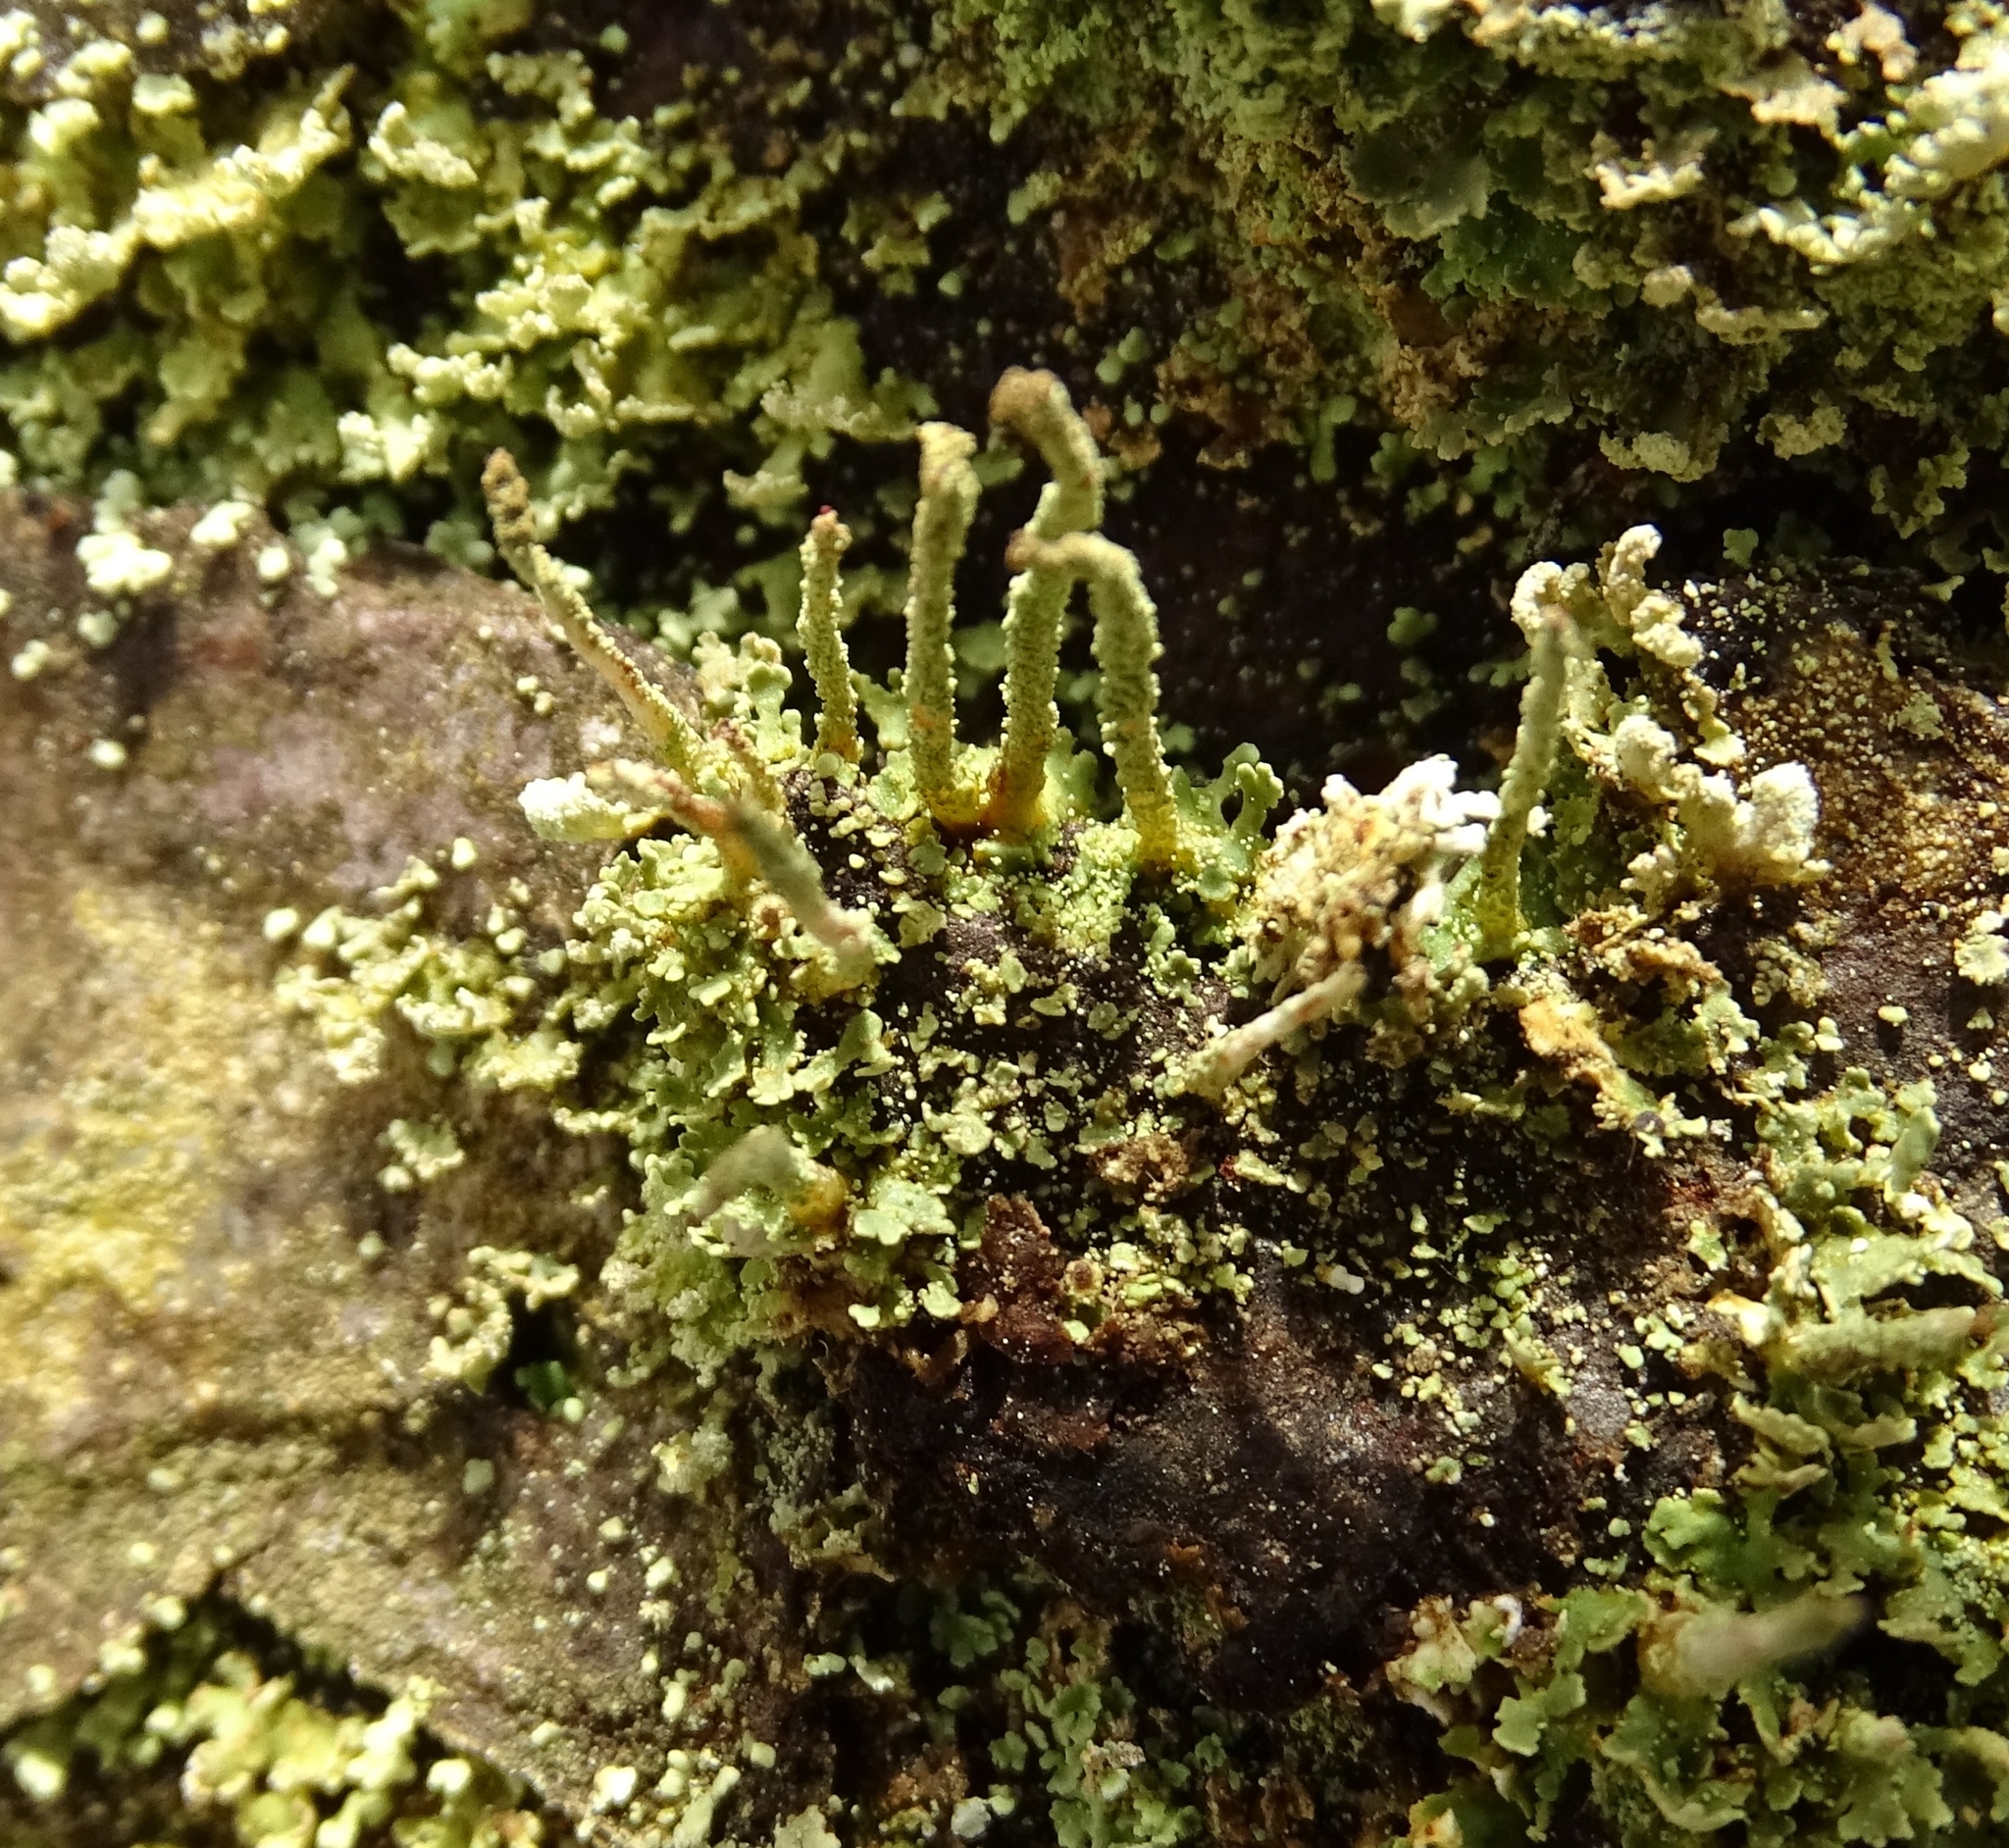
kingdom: Fungi
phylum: Ascomycota
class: Lecanoromycetes
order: Lecanorales
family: Cladoniaceae
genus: Cladonia
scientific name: Cladonia ochrochlora
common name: Smooth-footed powderhorn
